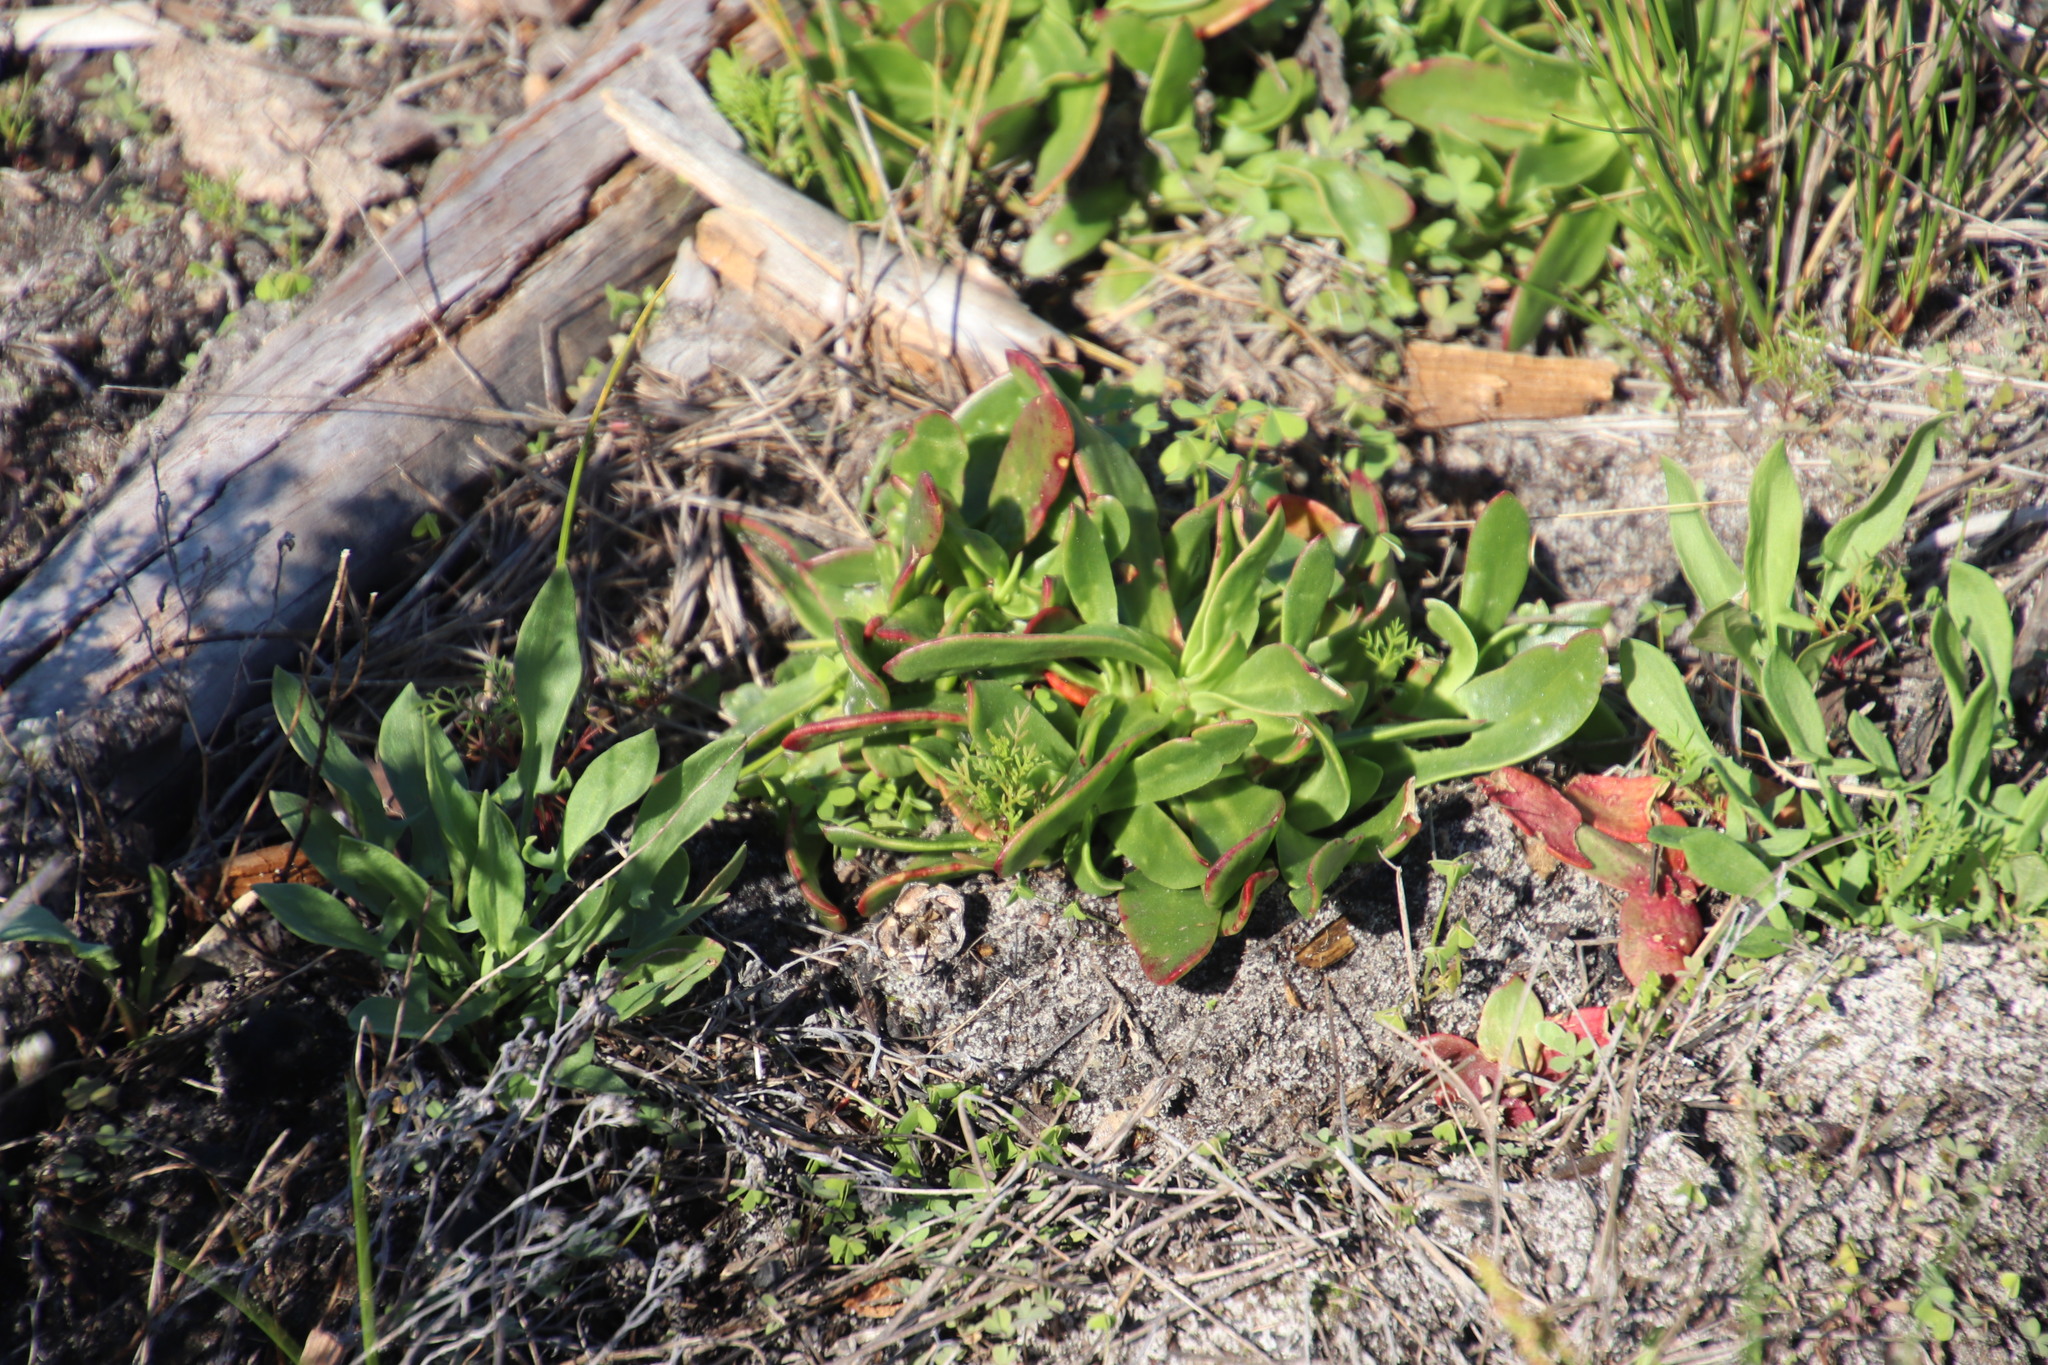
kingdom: Plantae
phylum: Tracheophyta
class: Magnoliopsida
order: Caryophyllales
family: Aizoaceae
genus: Skiatophytum
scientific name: Skiatophytum tripolium
